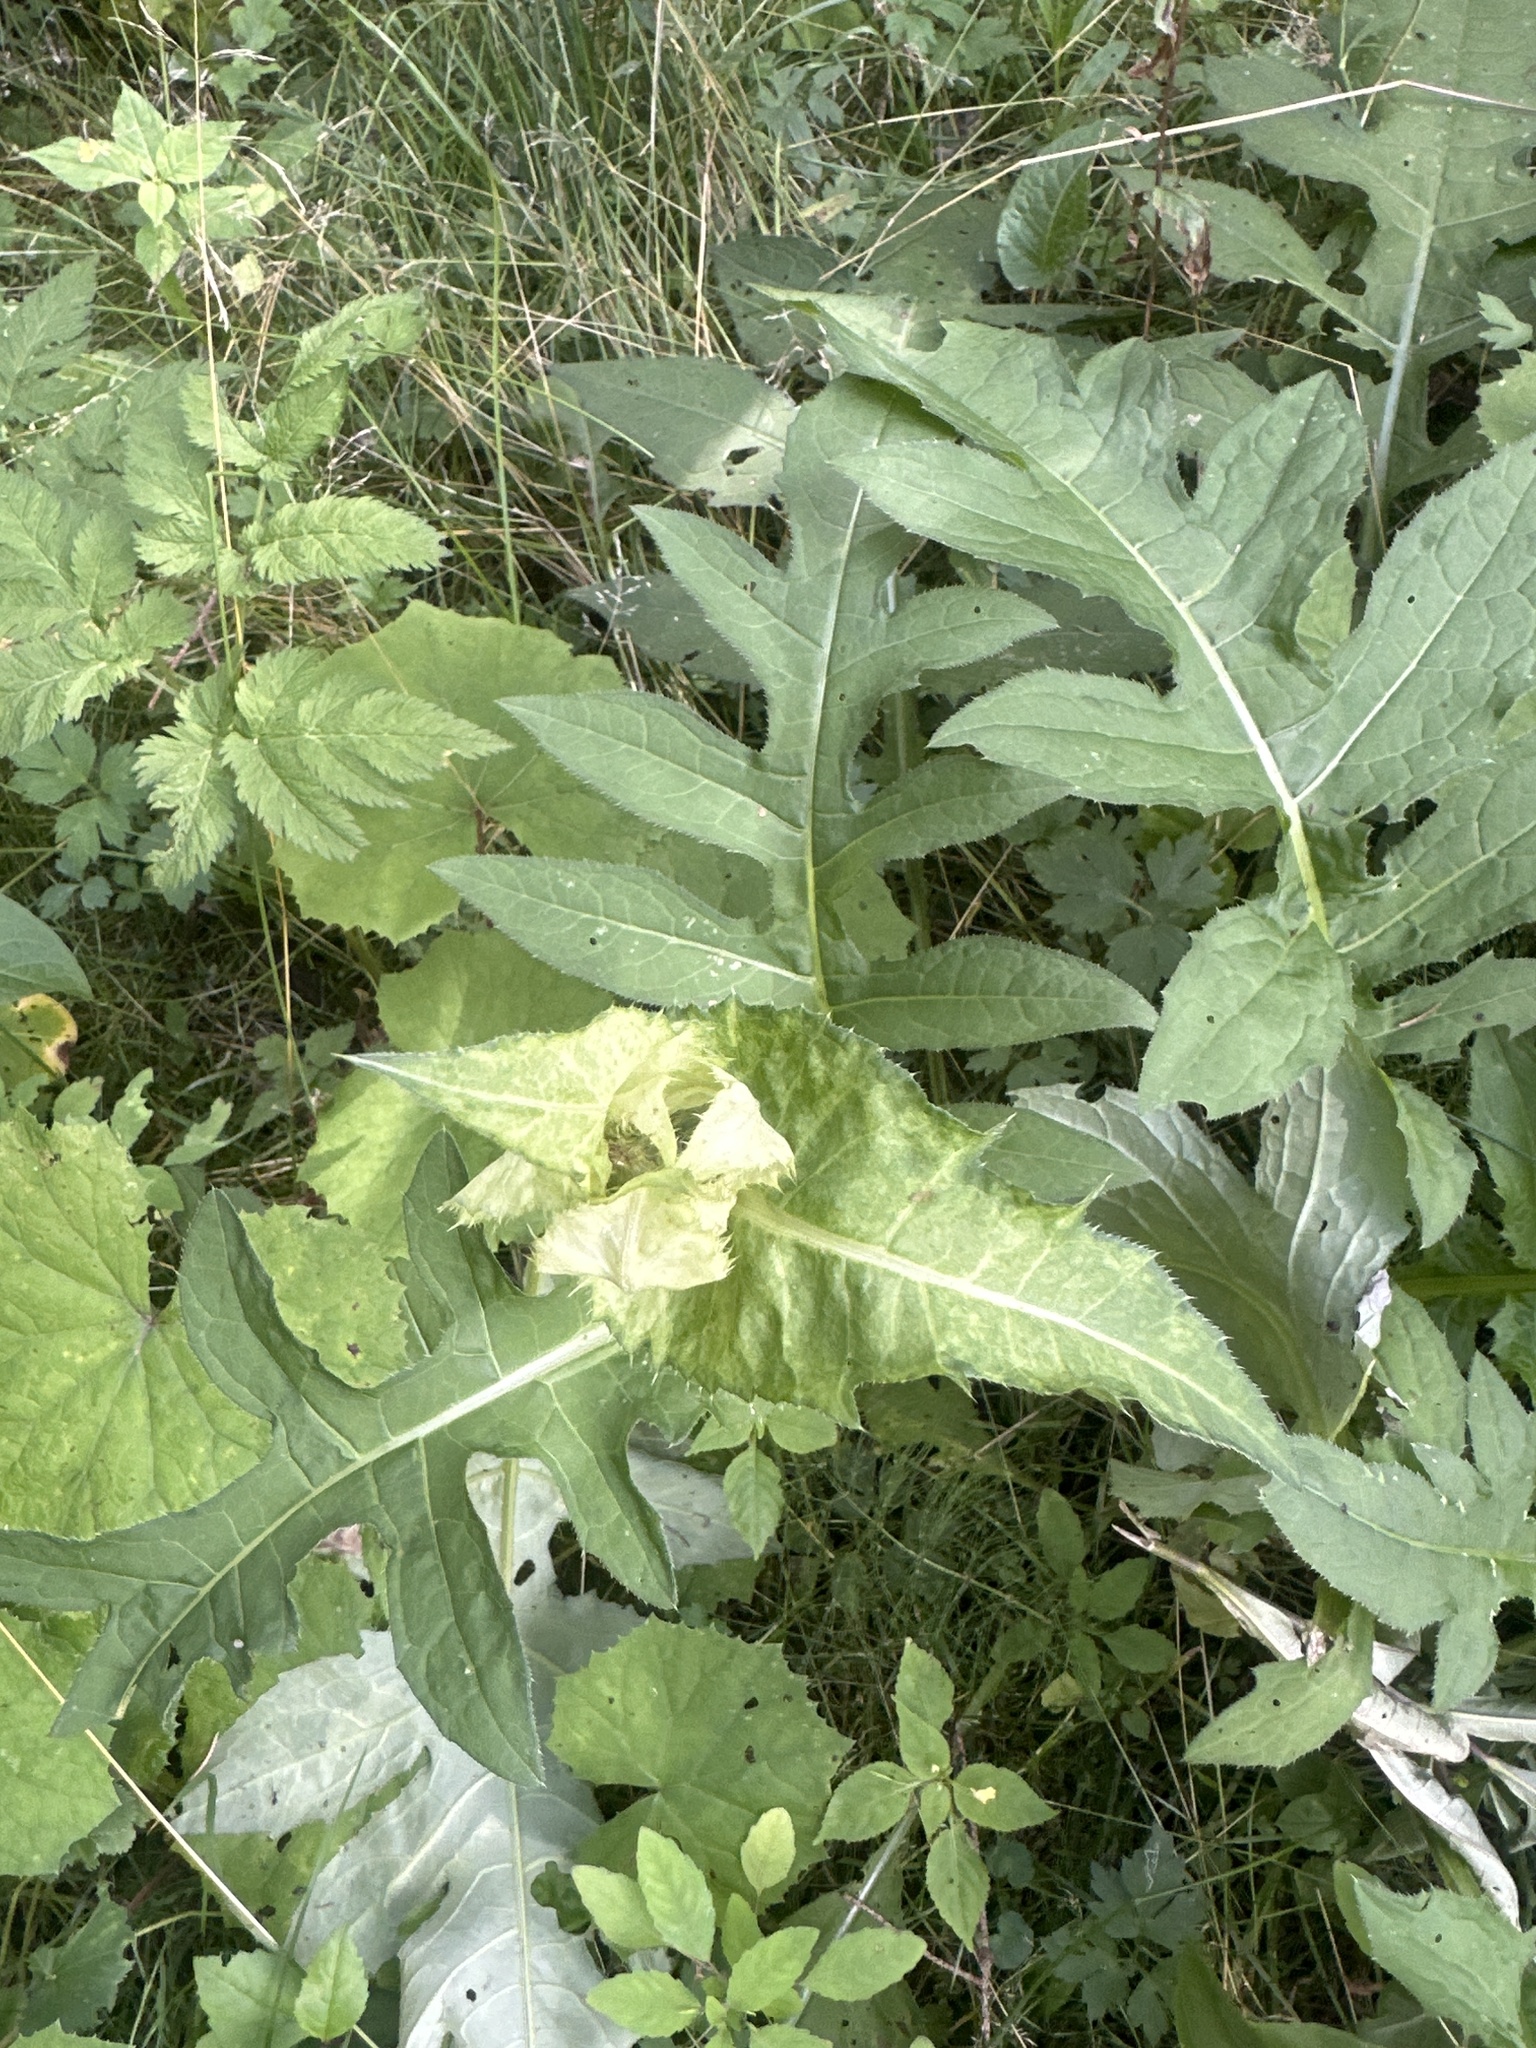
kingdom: Plantae
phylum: Tracheophyta
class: Magnoliopsida
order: Asterales
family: Asteraceae
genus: Cirsium
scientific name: Cirsium oleraceum
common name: Cabbage thistle
